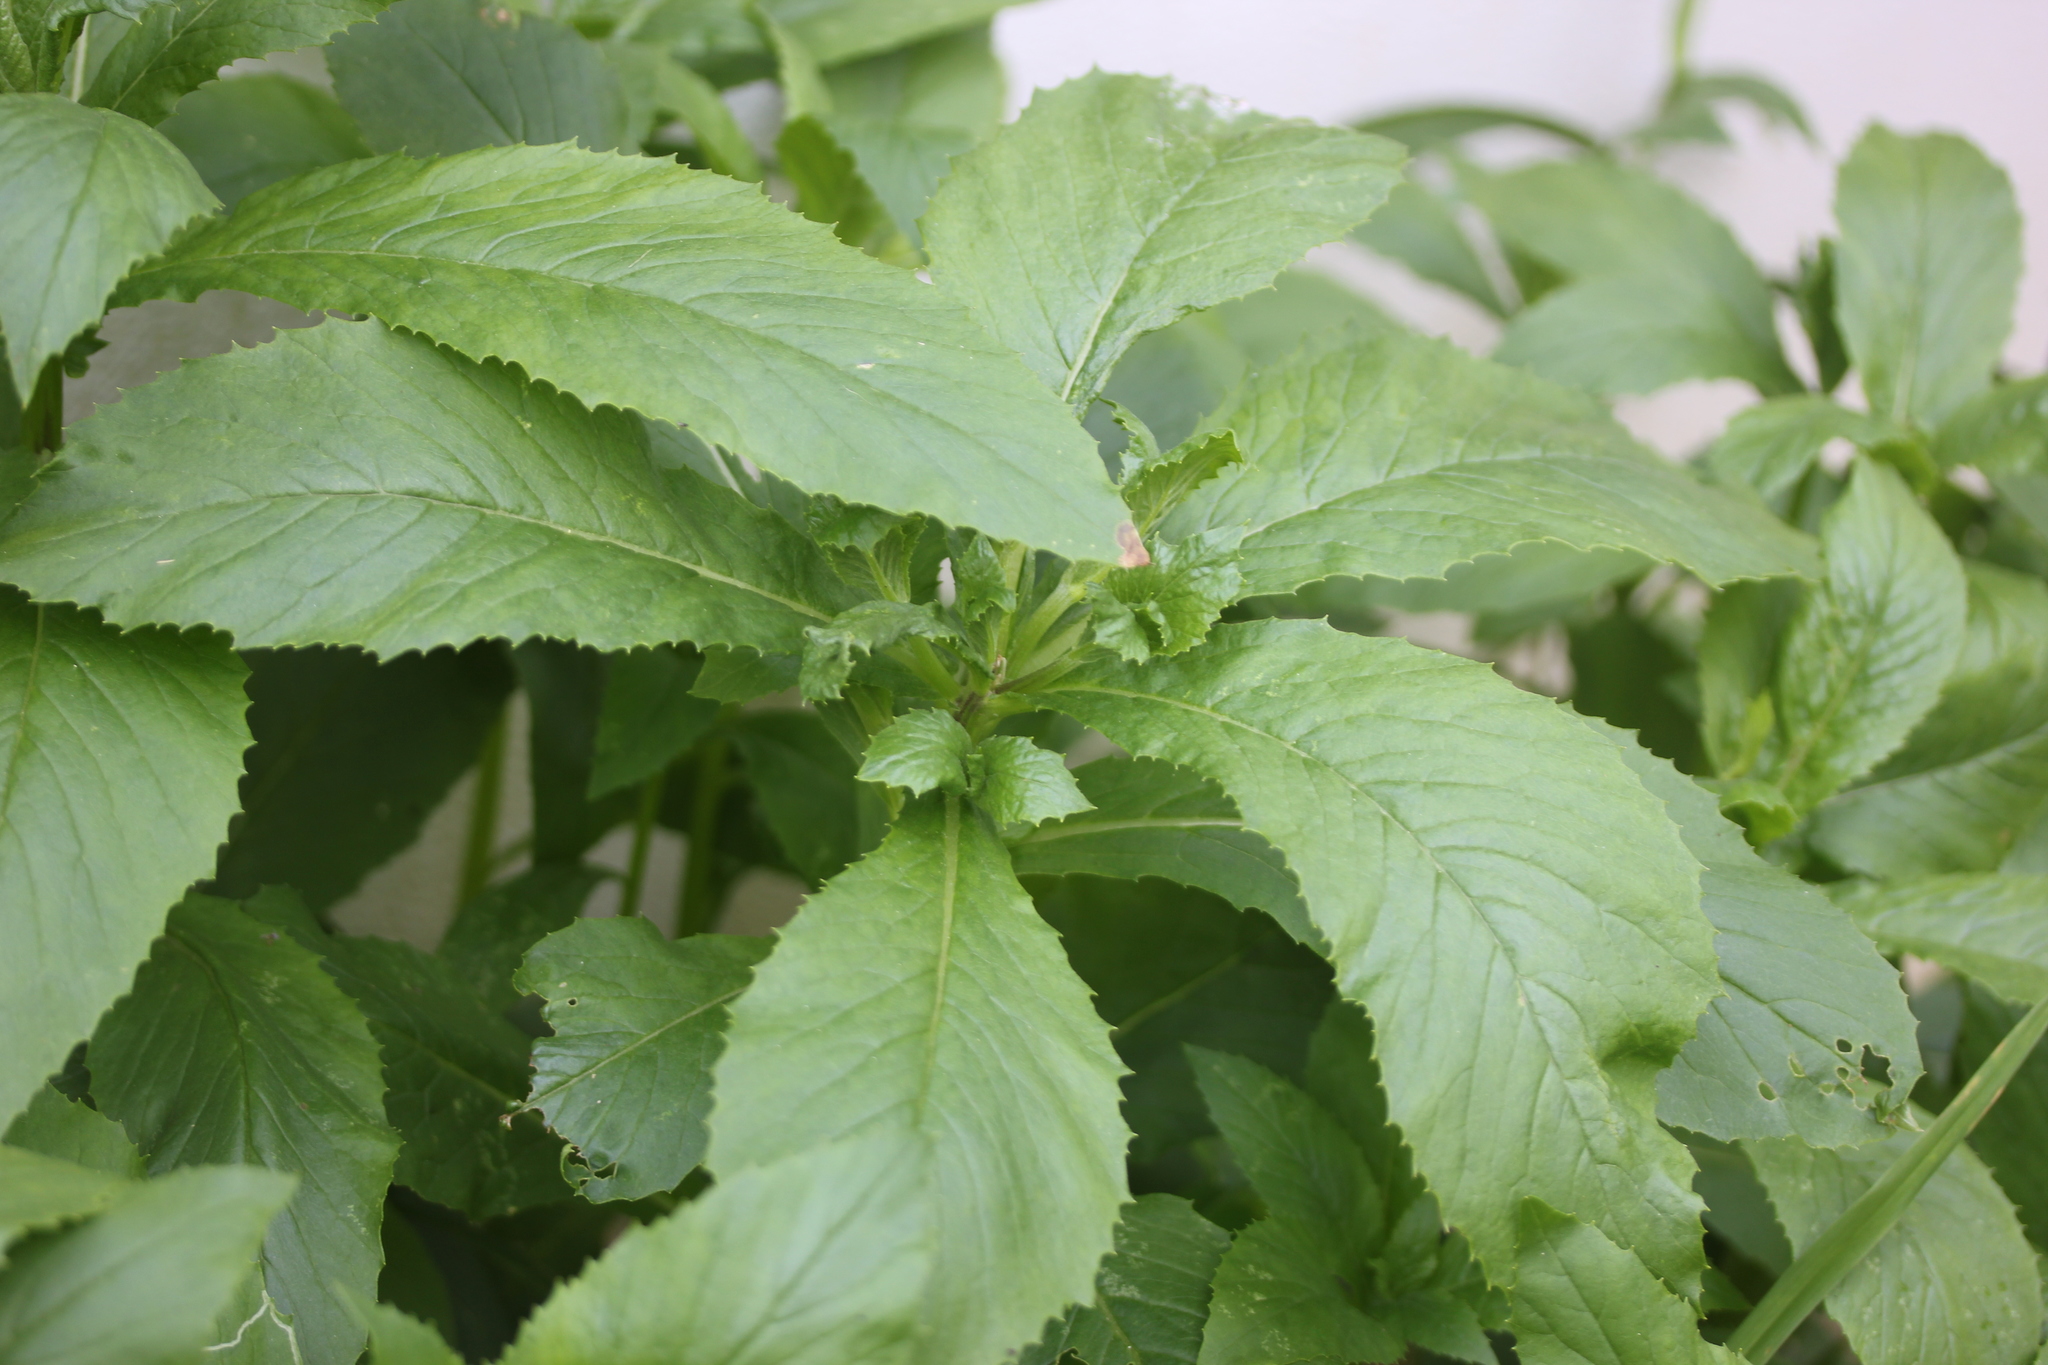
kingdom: Plantae
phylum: Tracheophyta
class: Magnoliopsida
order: Asterales
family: Asteraceae
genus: Erechtites
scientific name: Erechtites hieraciifolius
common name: American burnweed
